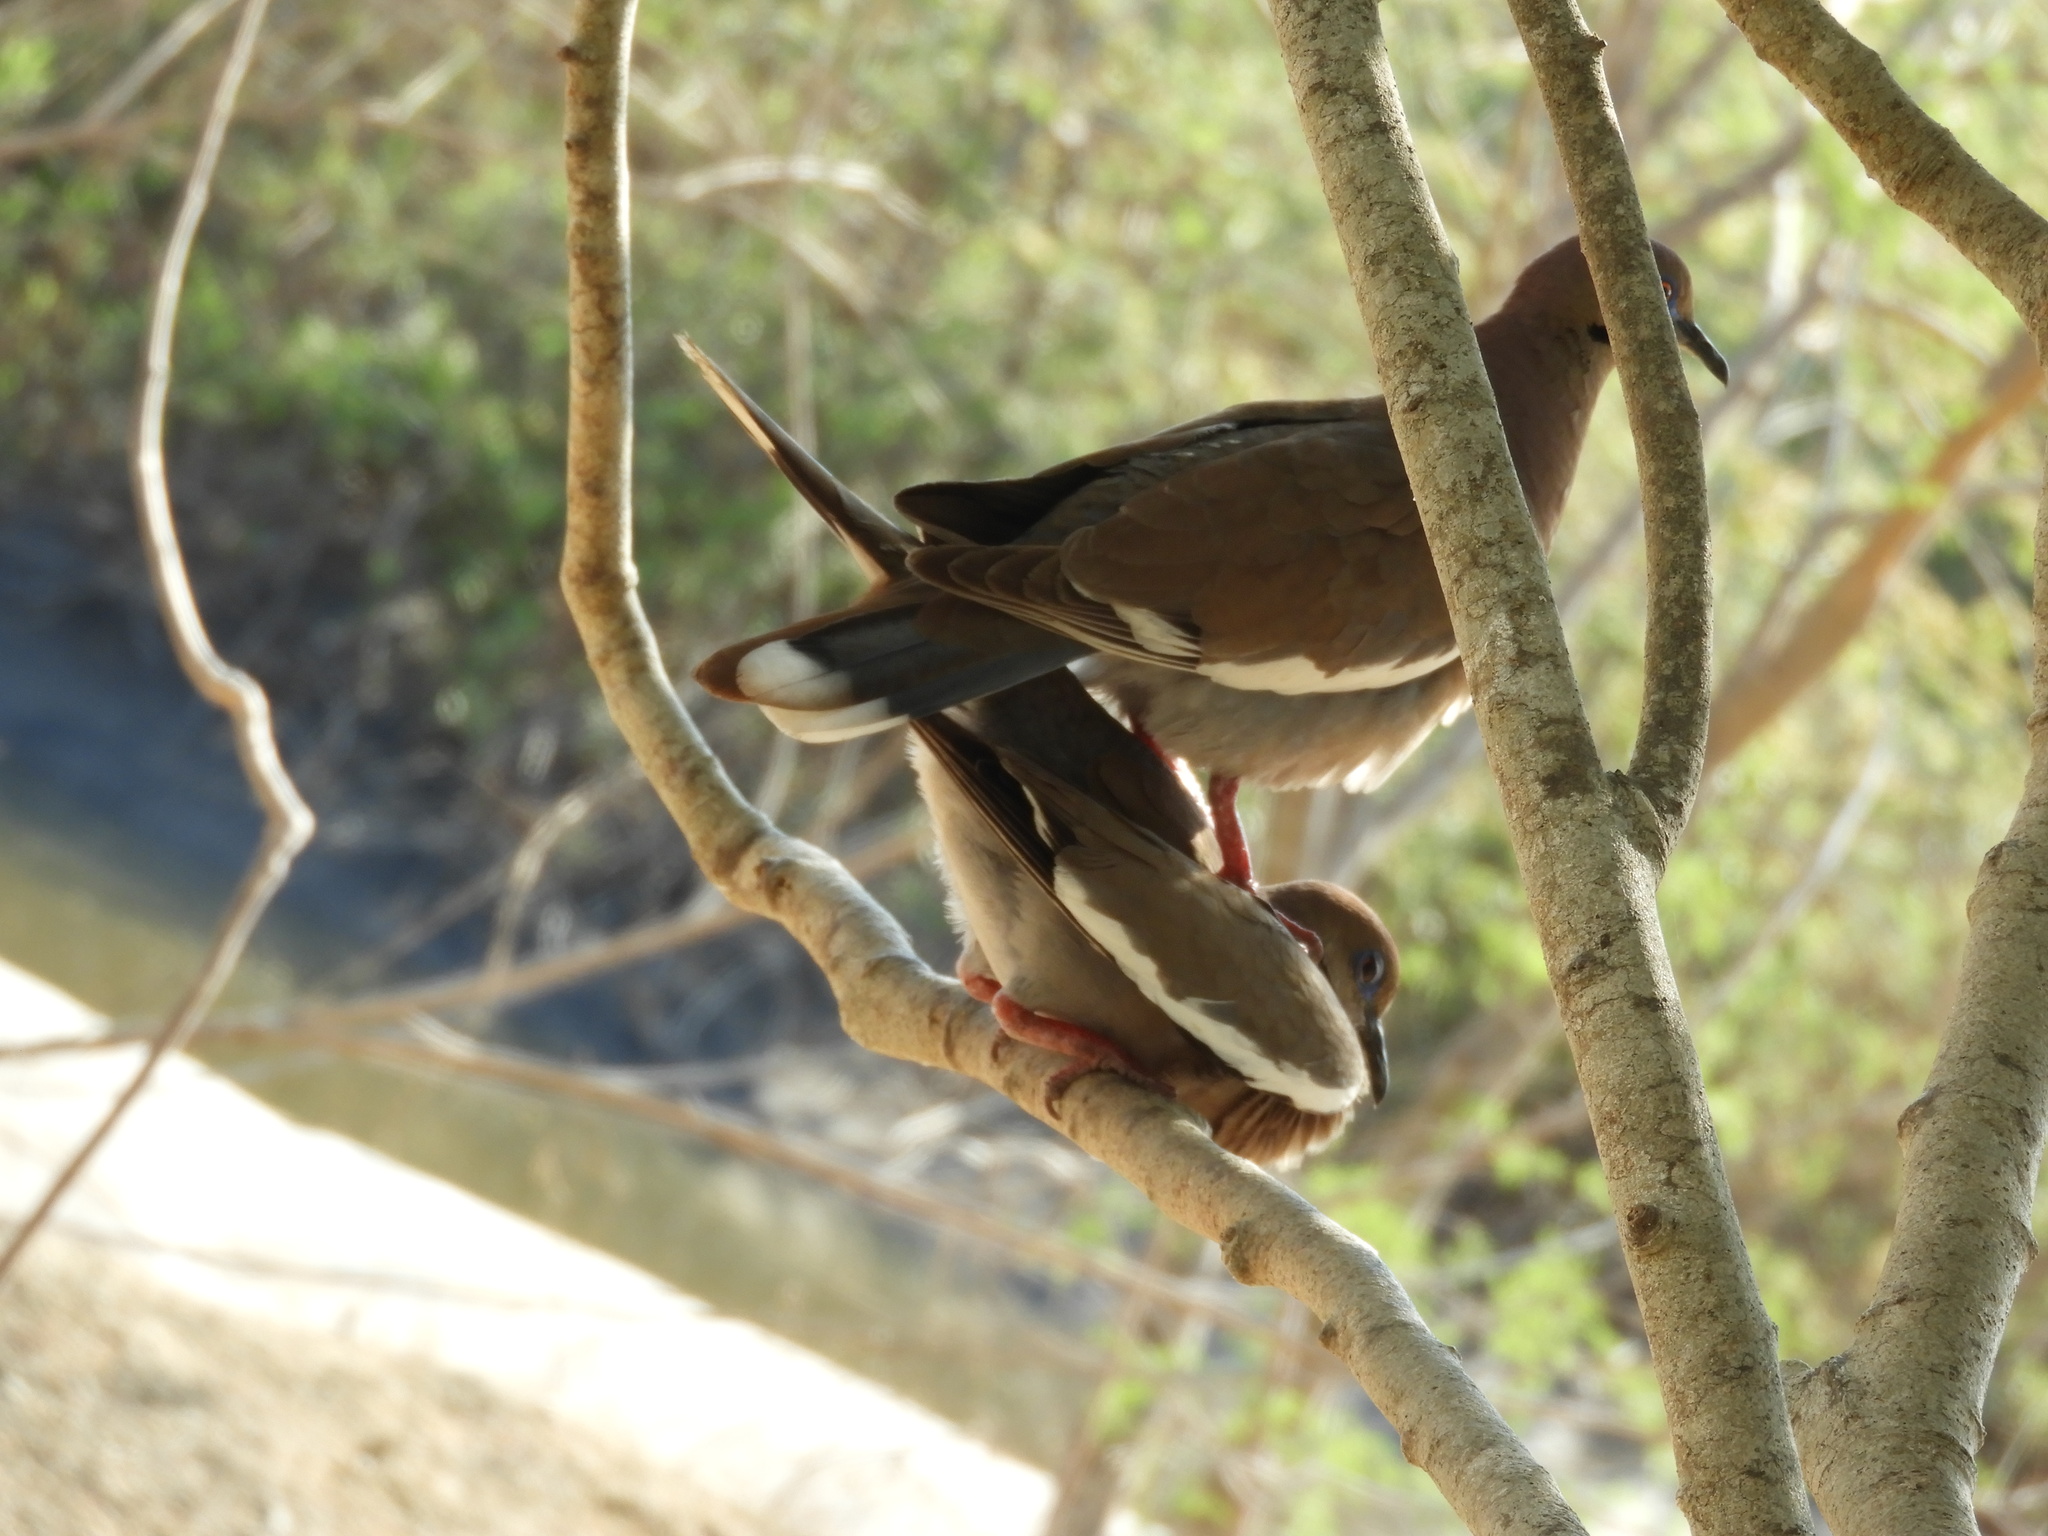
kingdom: Animalia
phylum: Chordata
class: Aves
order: Columbiformes
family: Columbidae
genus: Zenaida
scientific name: Zenaida asiatica
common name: White-winged dove
